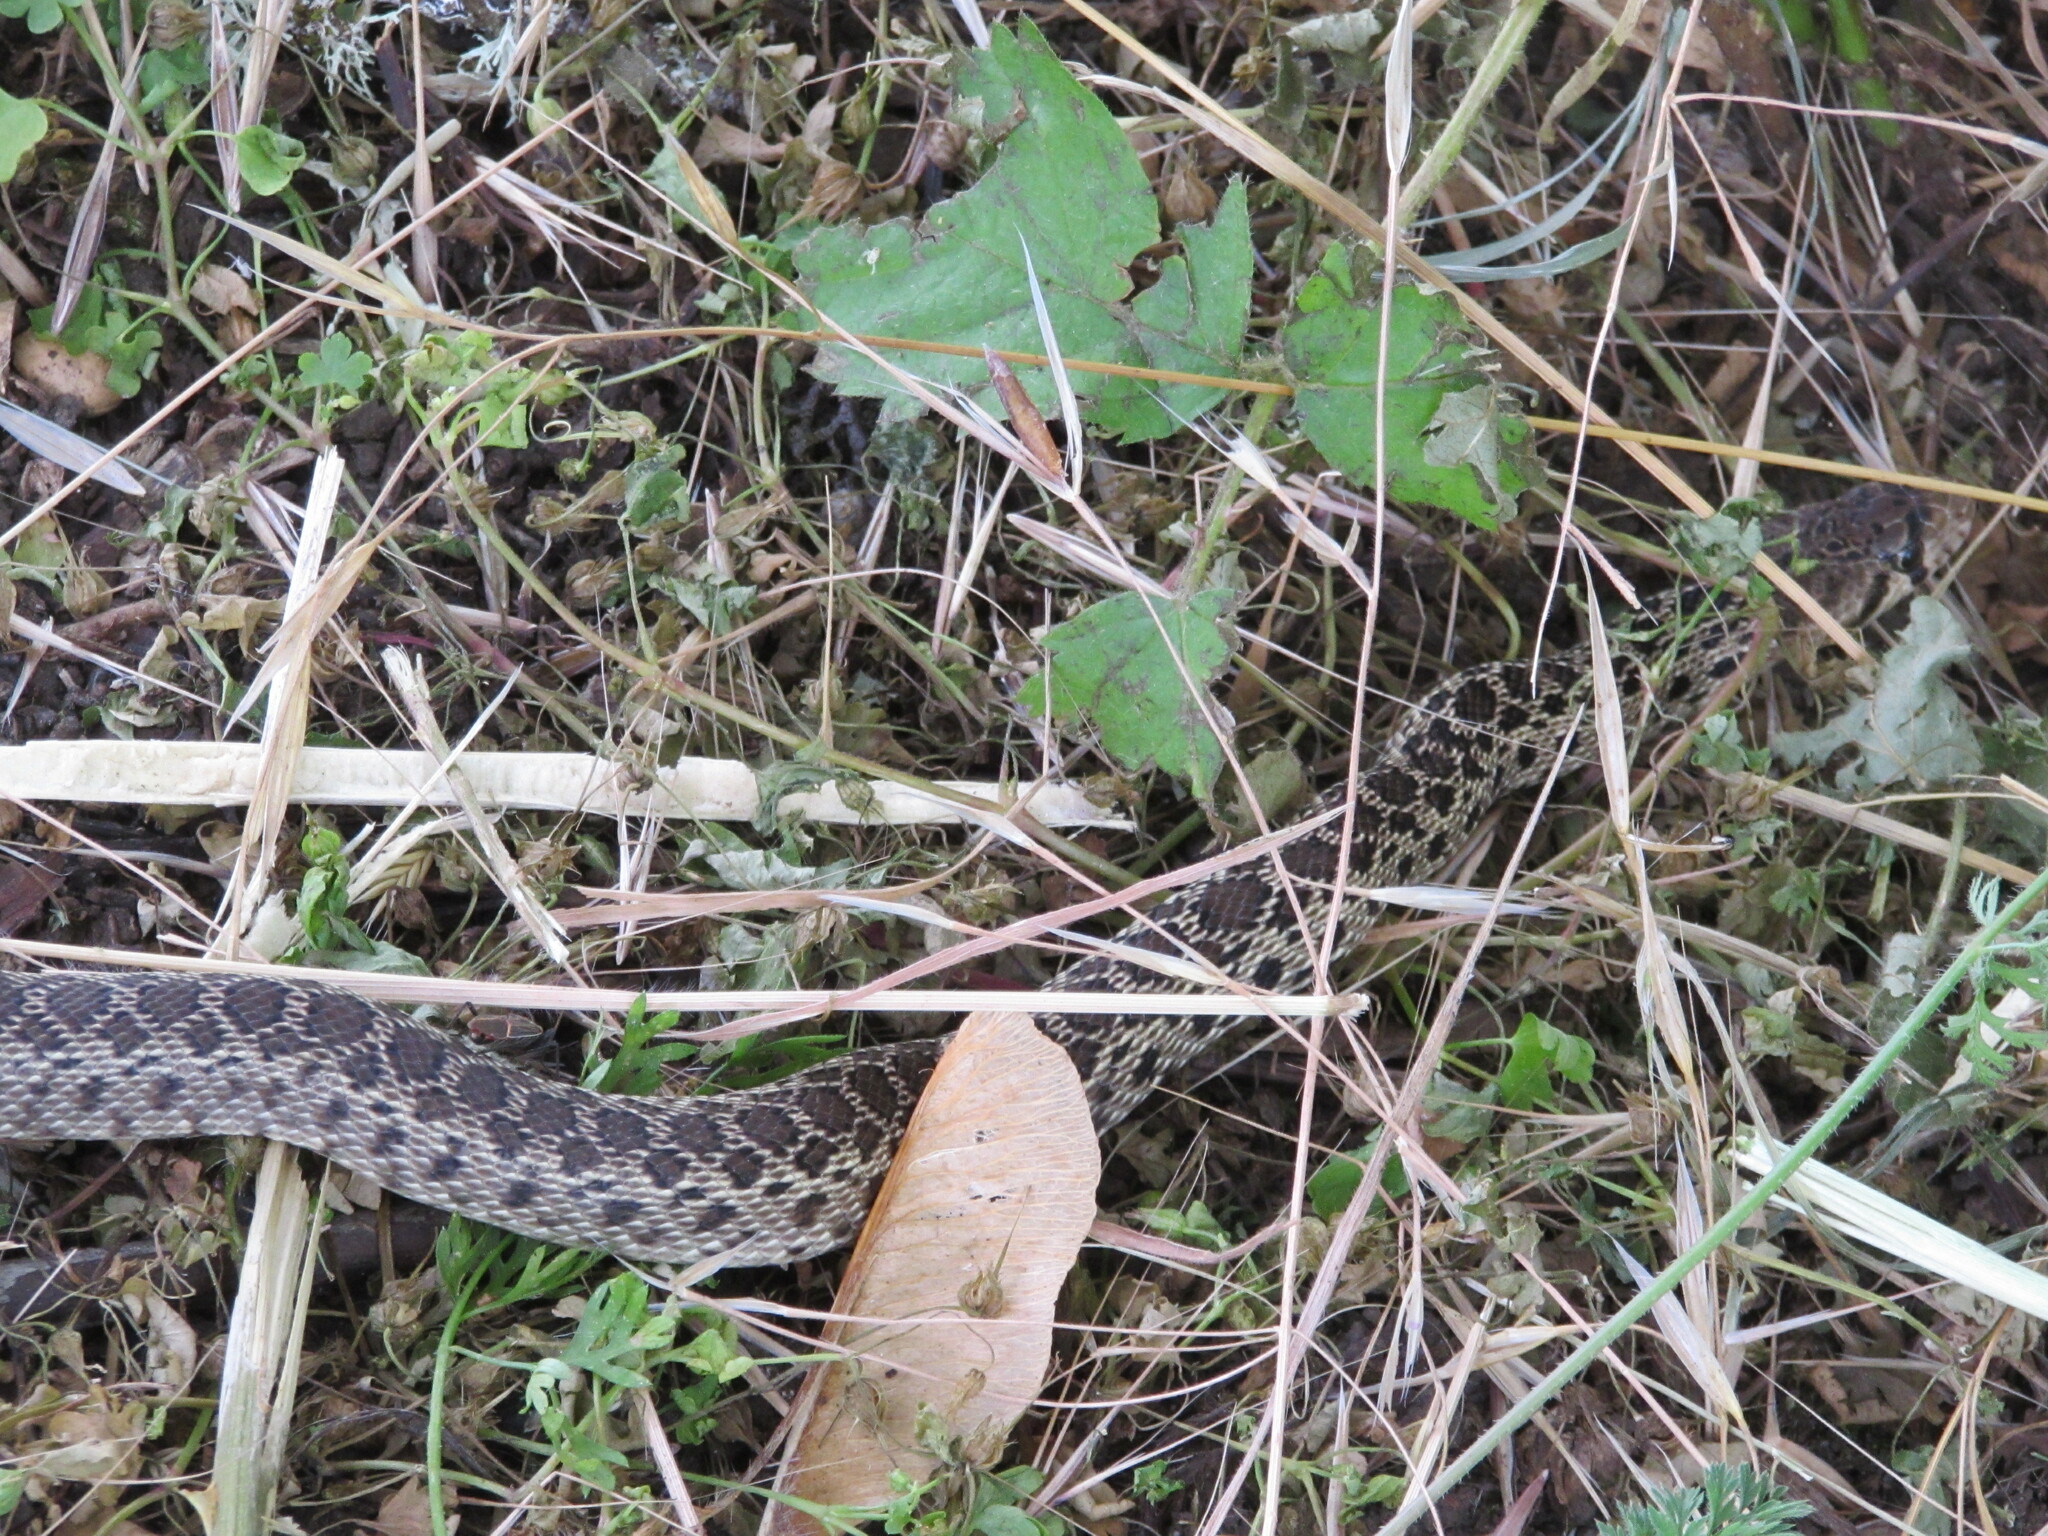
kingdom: Animalia
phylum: Chordata
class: Squamata
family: Colubridae
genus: Pituophis
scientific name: Pituophis catenifer
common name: Gopher snake
